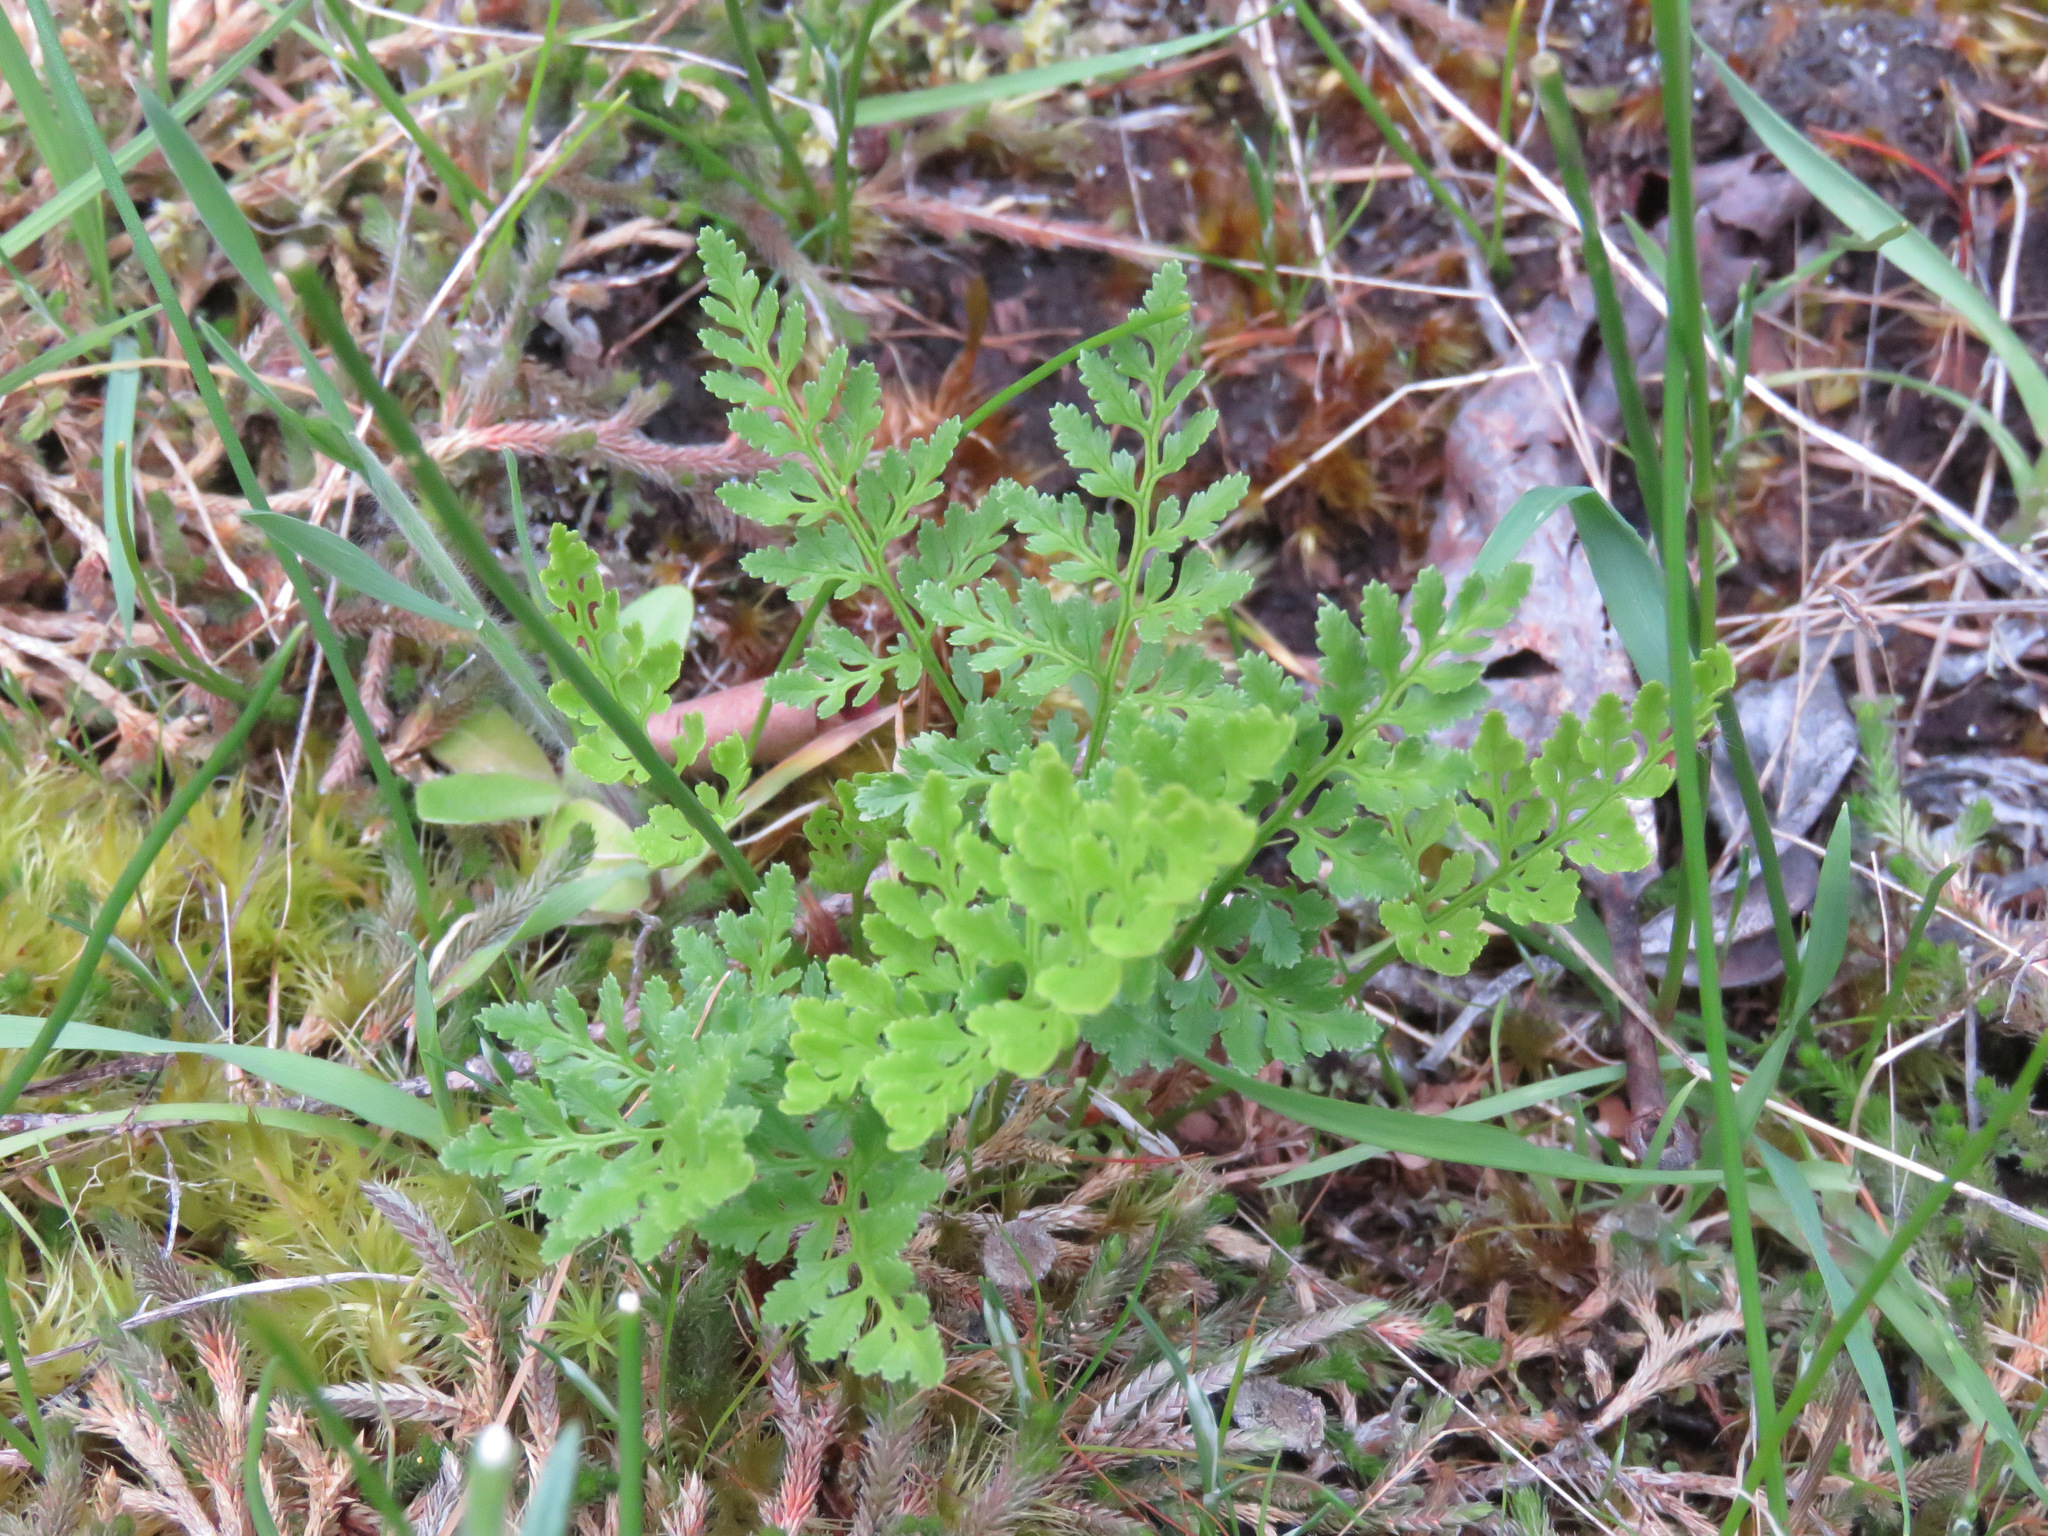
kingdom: Plantae
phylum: Tracheophyta
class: Polypodiopsida
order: Polypodiales
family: Pteridaceae
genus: Cryptogramma
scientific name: Cryptogramma acrostichoides
